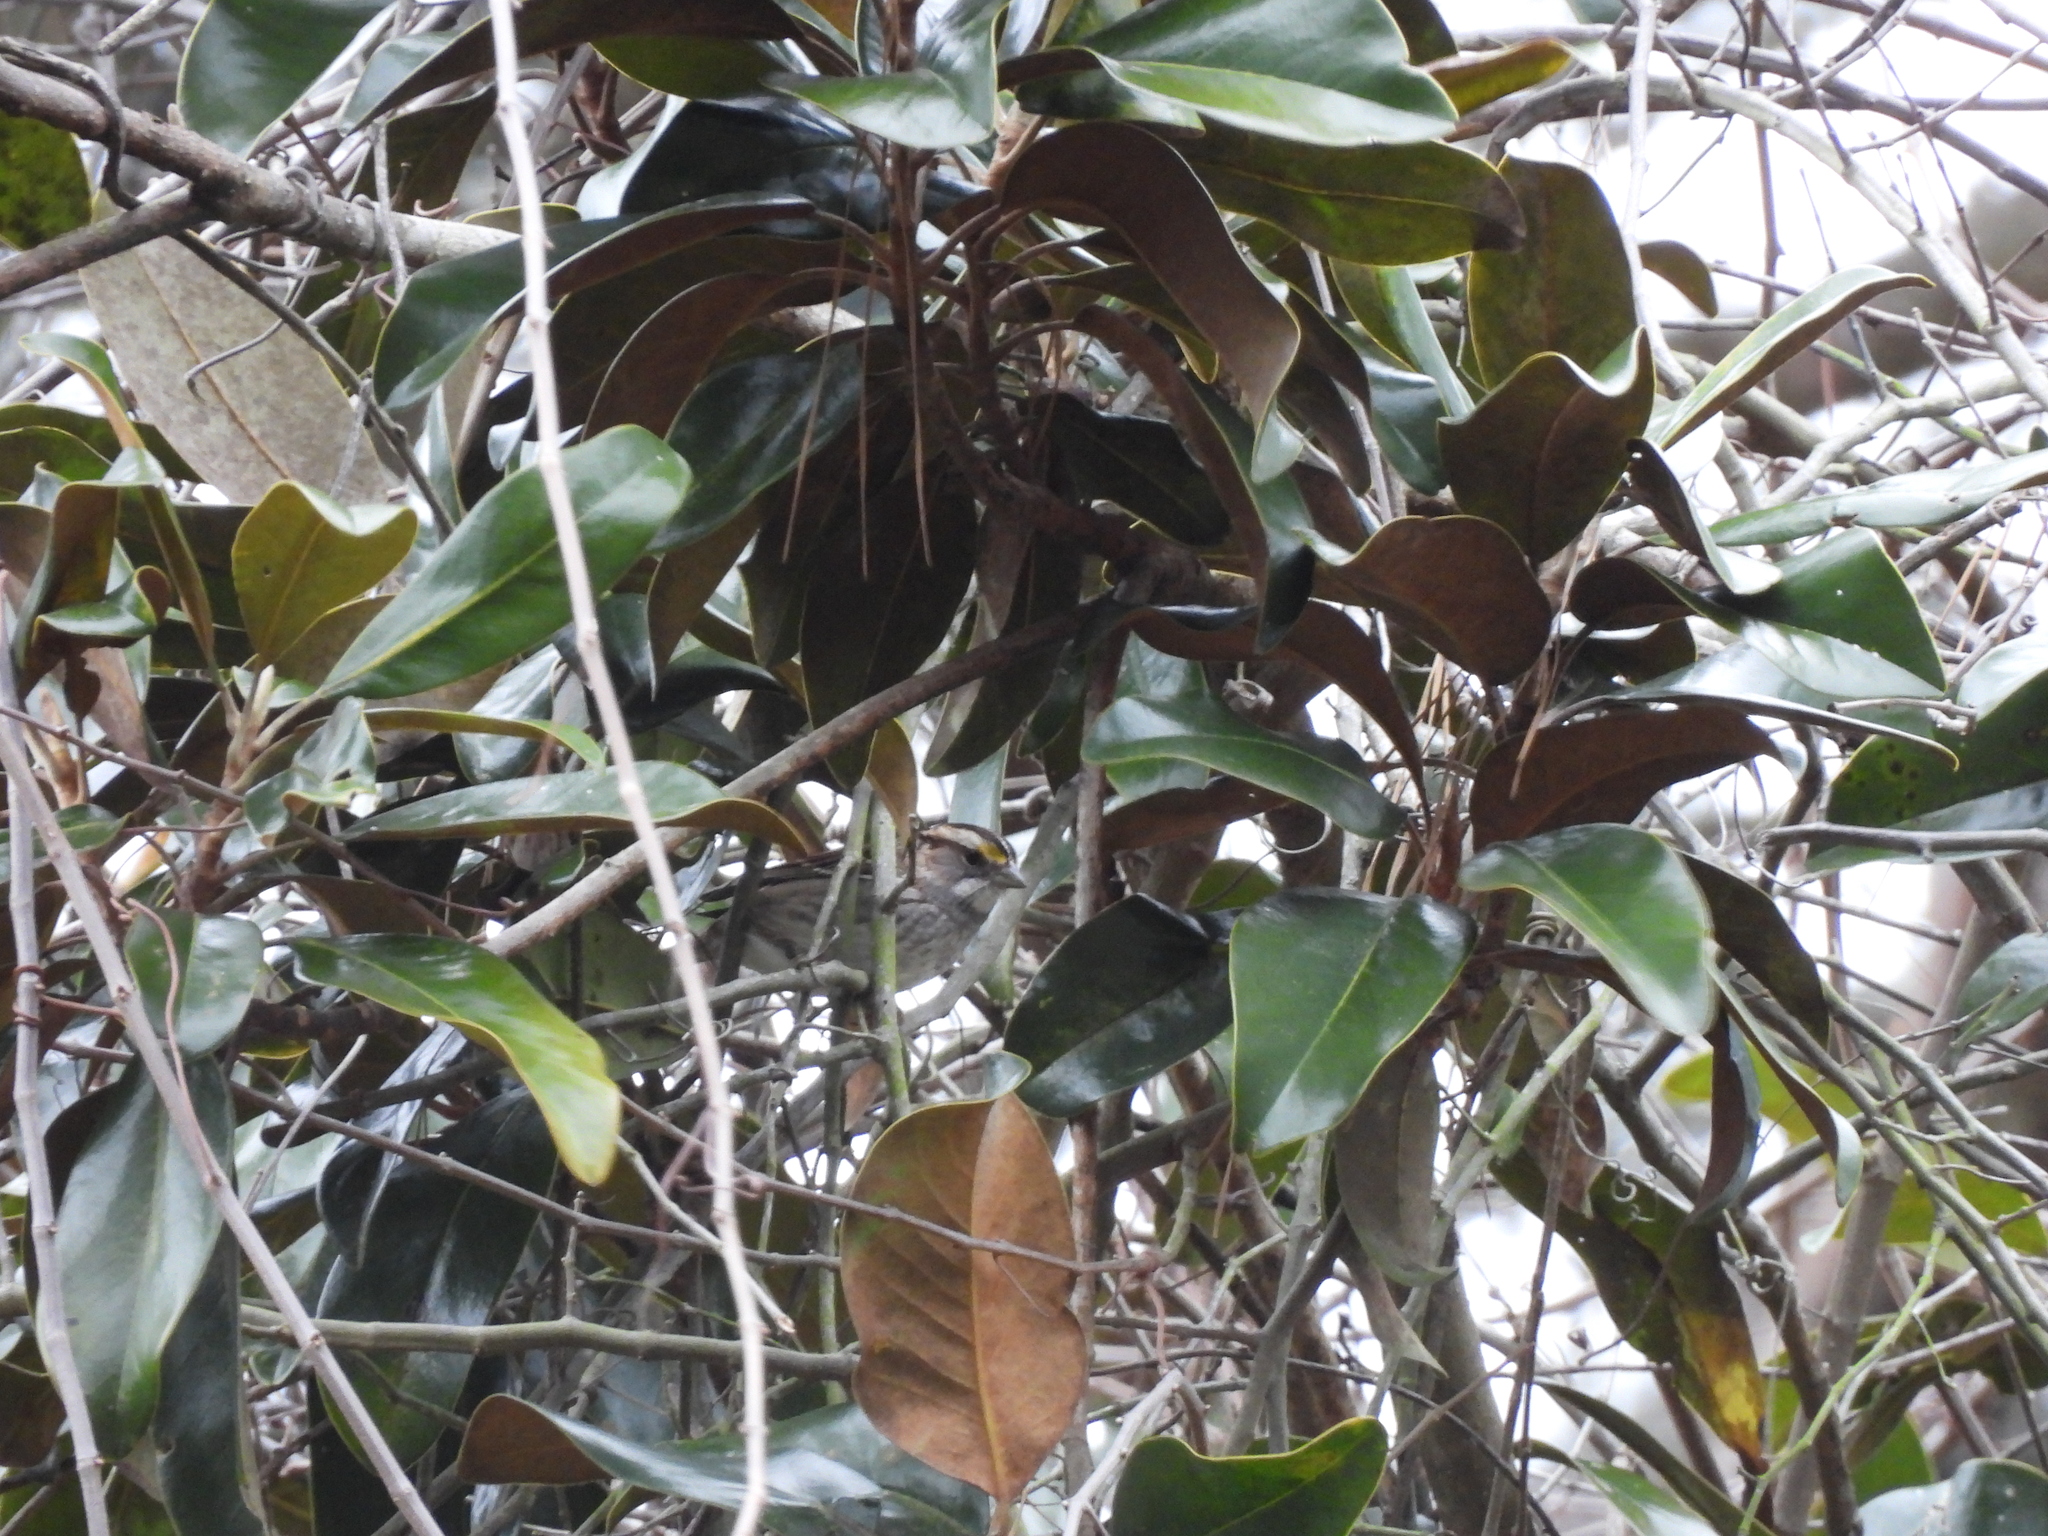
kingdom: Animalia
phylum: Chordata
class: Aves
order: Passeriformes
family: Passerellidae
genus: Zonotrichia
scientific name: Zonotrichia albicollis
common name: White-throated sparrow
